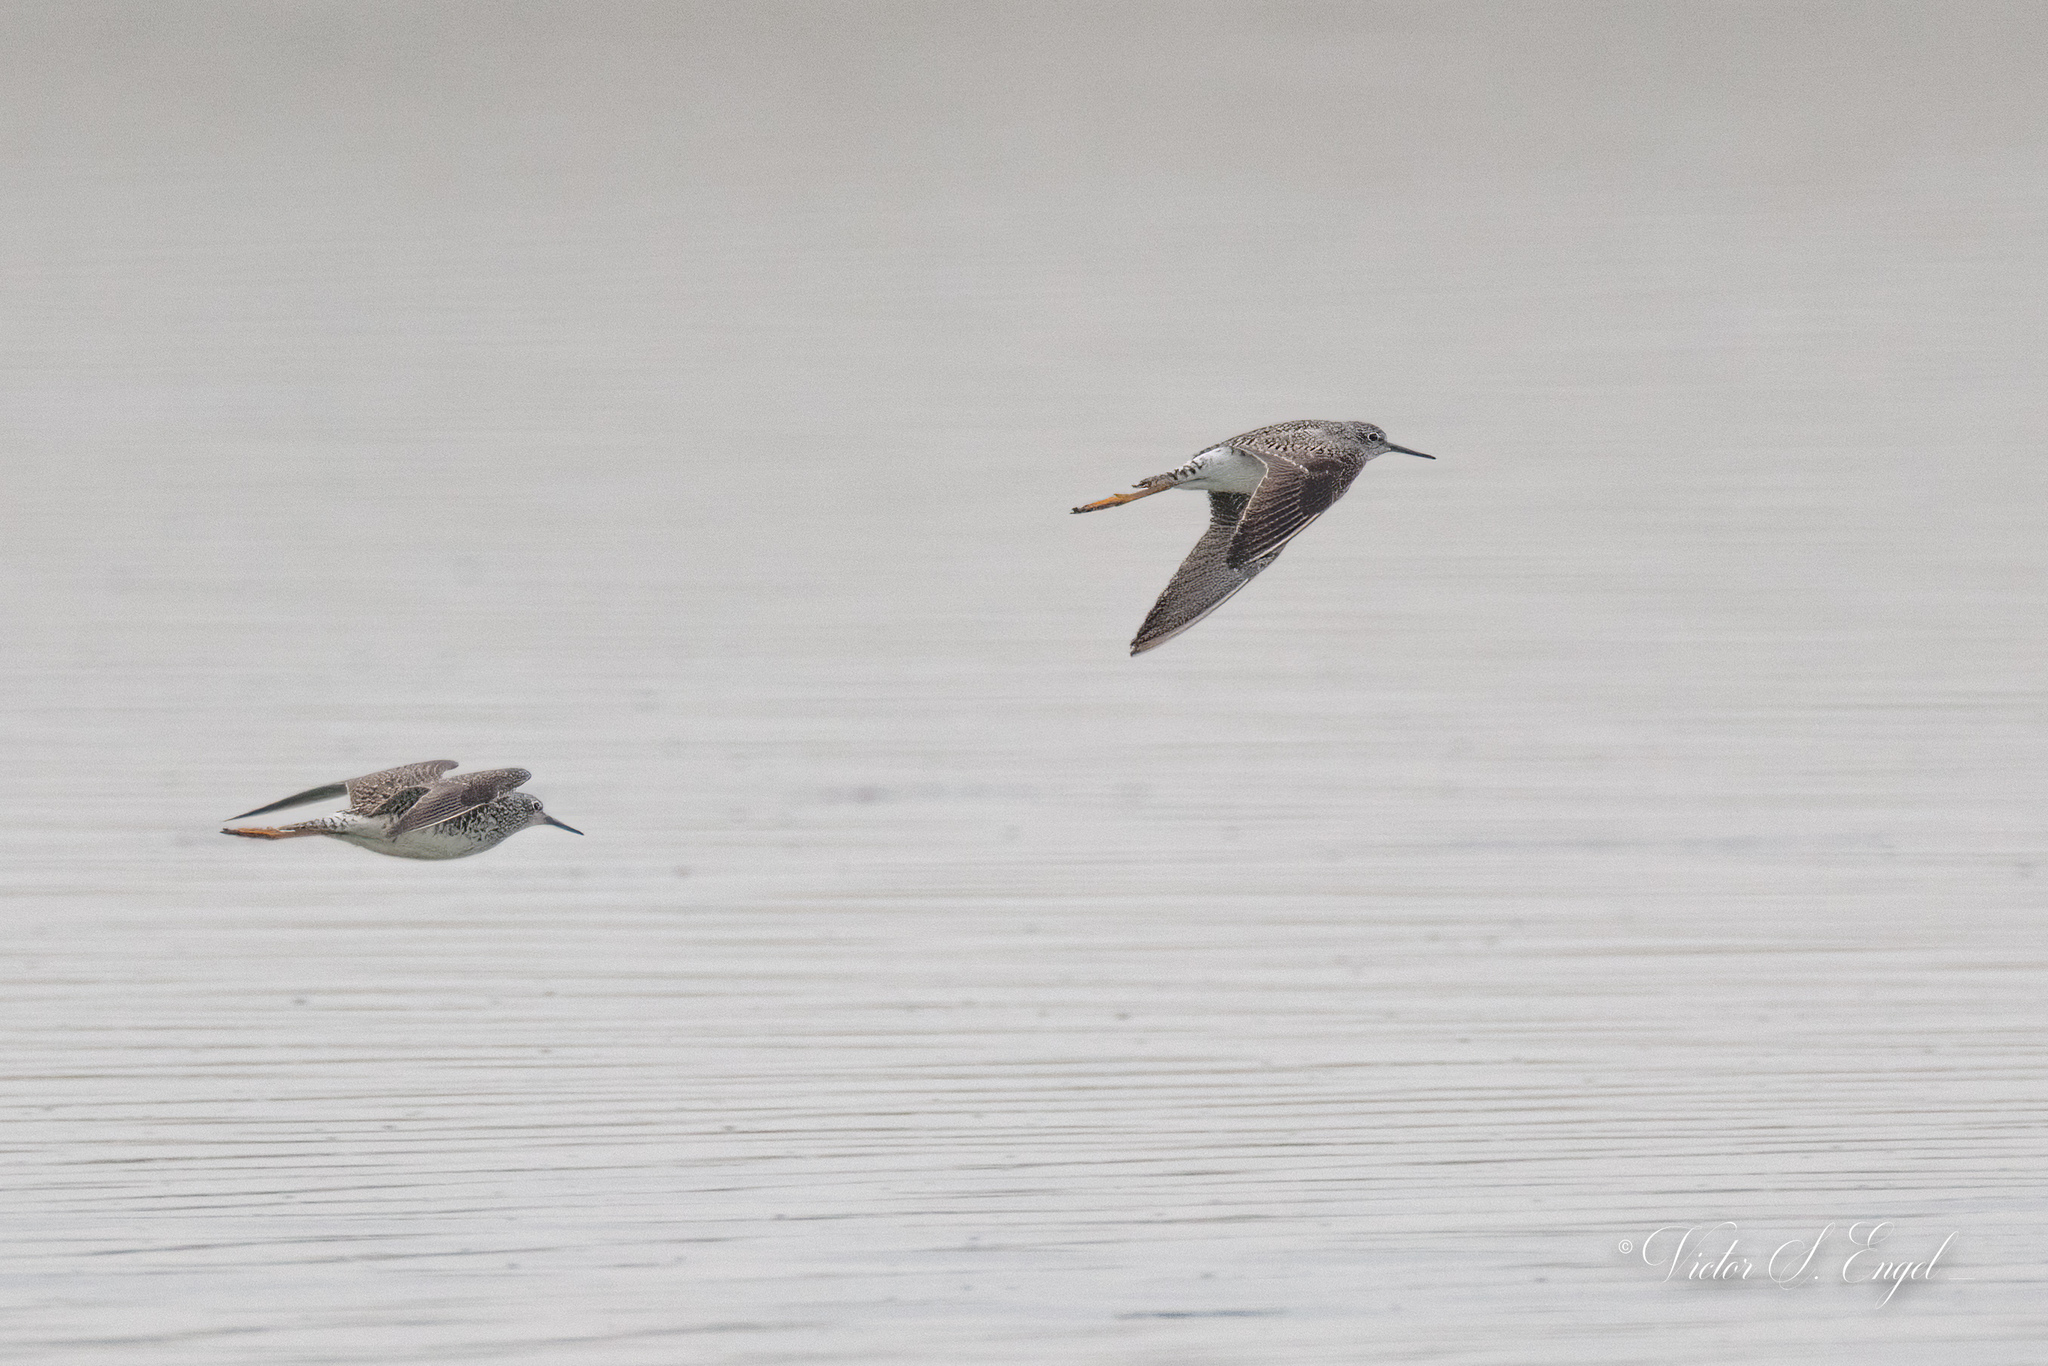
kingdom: Animalia
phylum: Chordata
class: Aves
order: Charadriiformes
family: Scolopacidae
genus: Tringa
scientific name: Tringa flavipes
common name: Lesser yellowlegs
